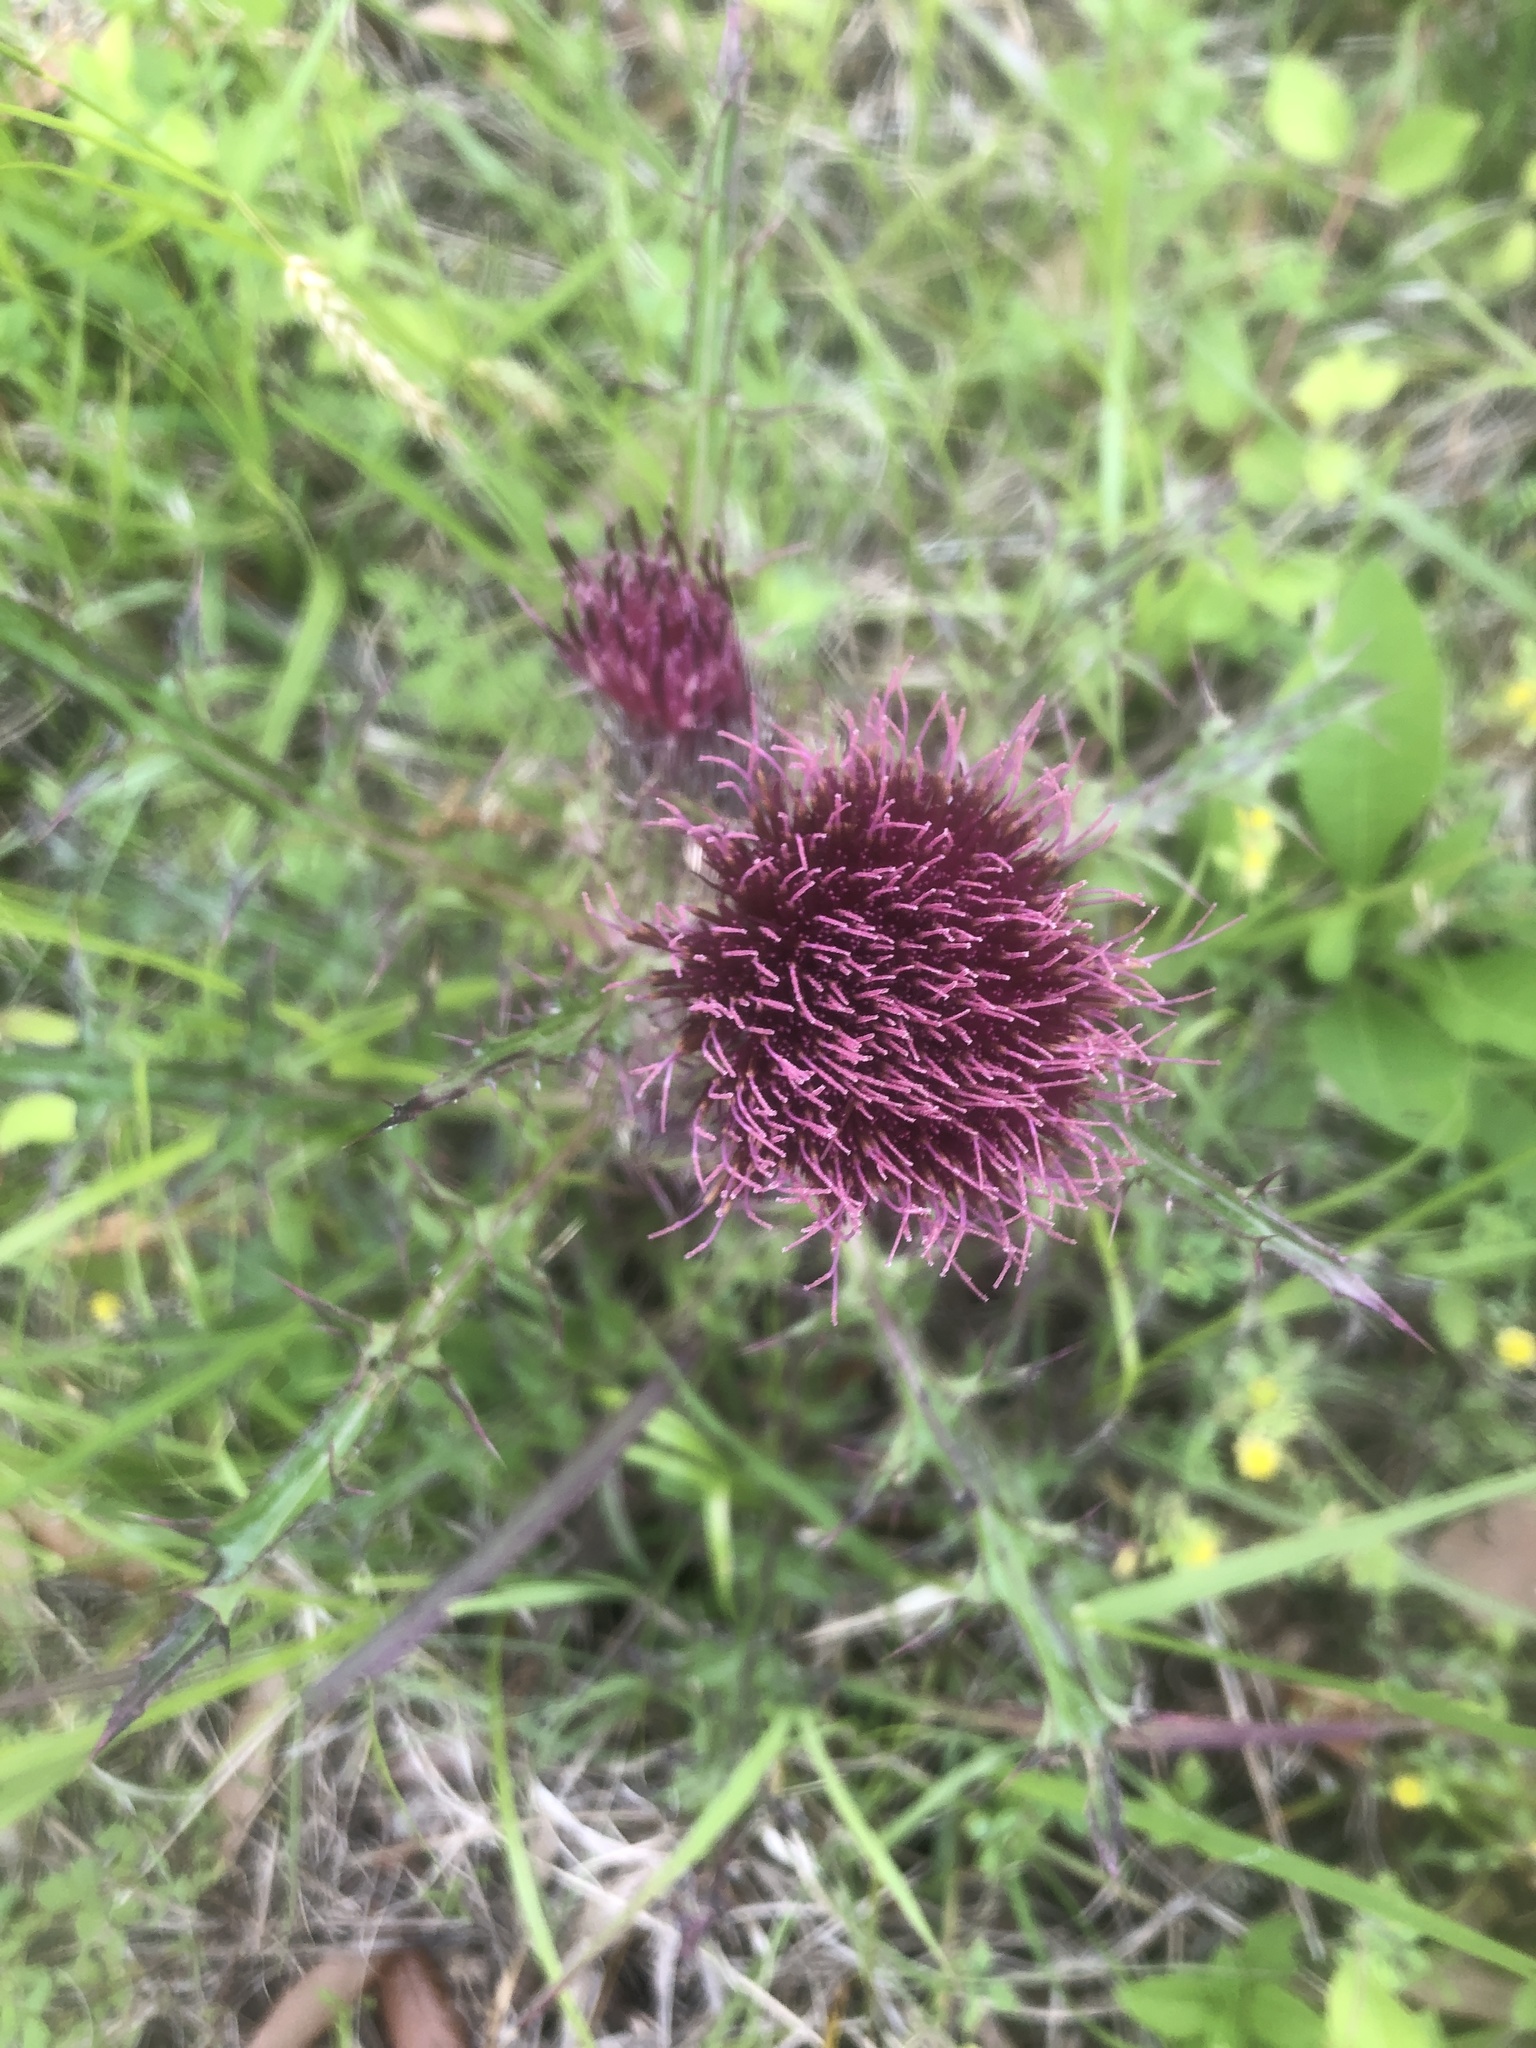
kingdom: Plantae
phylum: Tracheophyta
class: Magnoliopsida
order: Asterales
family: Asteraceae
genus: Cirsium
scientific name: Cirsium horridulum
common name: Bristly thistle
